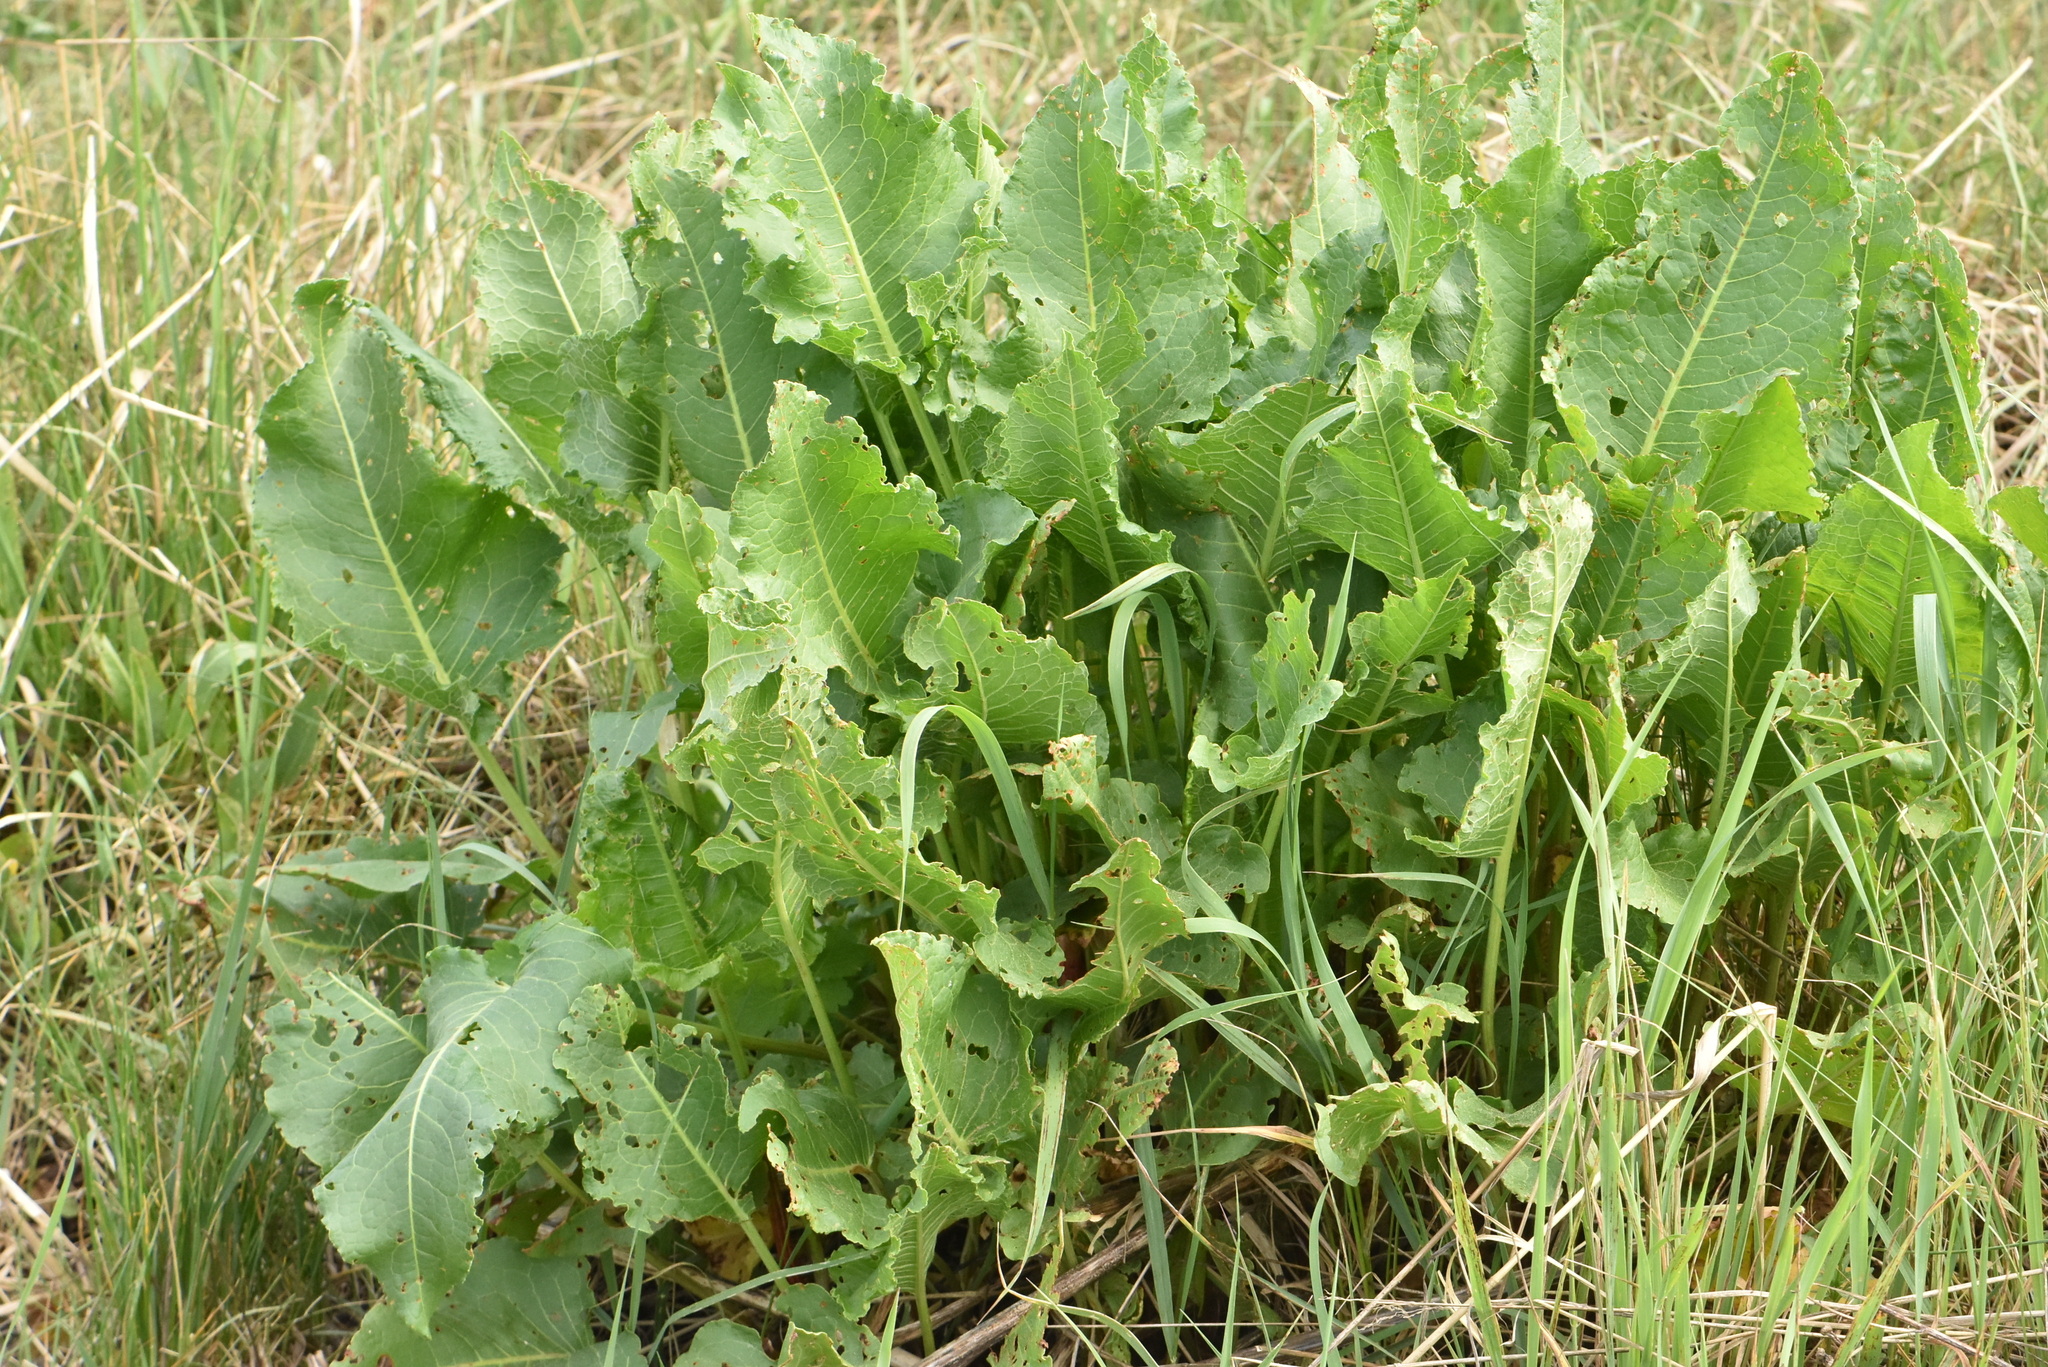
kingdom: Plantae
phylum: Tracheophyta
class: Magnoliopsida
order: Caryophyllales
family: Polygonaceae
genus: Rumex
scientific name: Rumex confertus
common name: Russian dock
